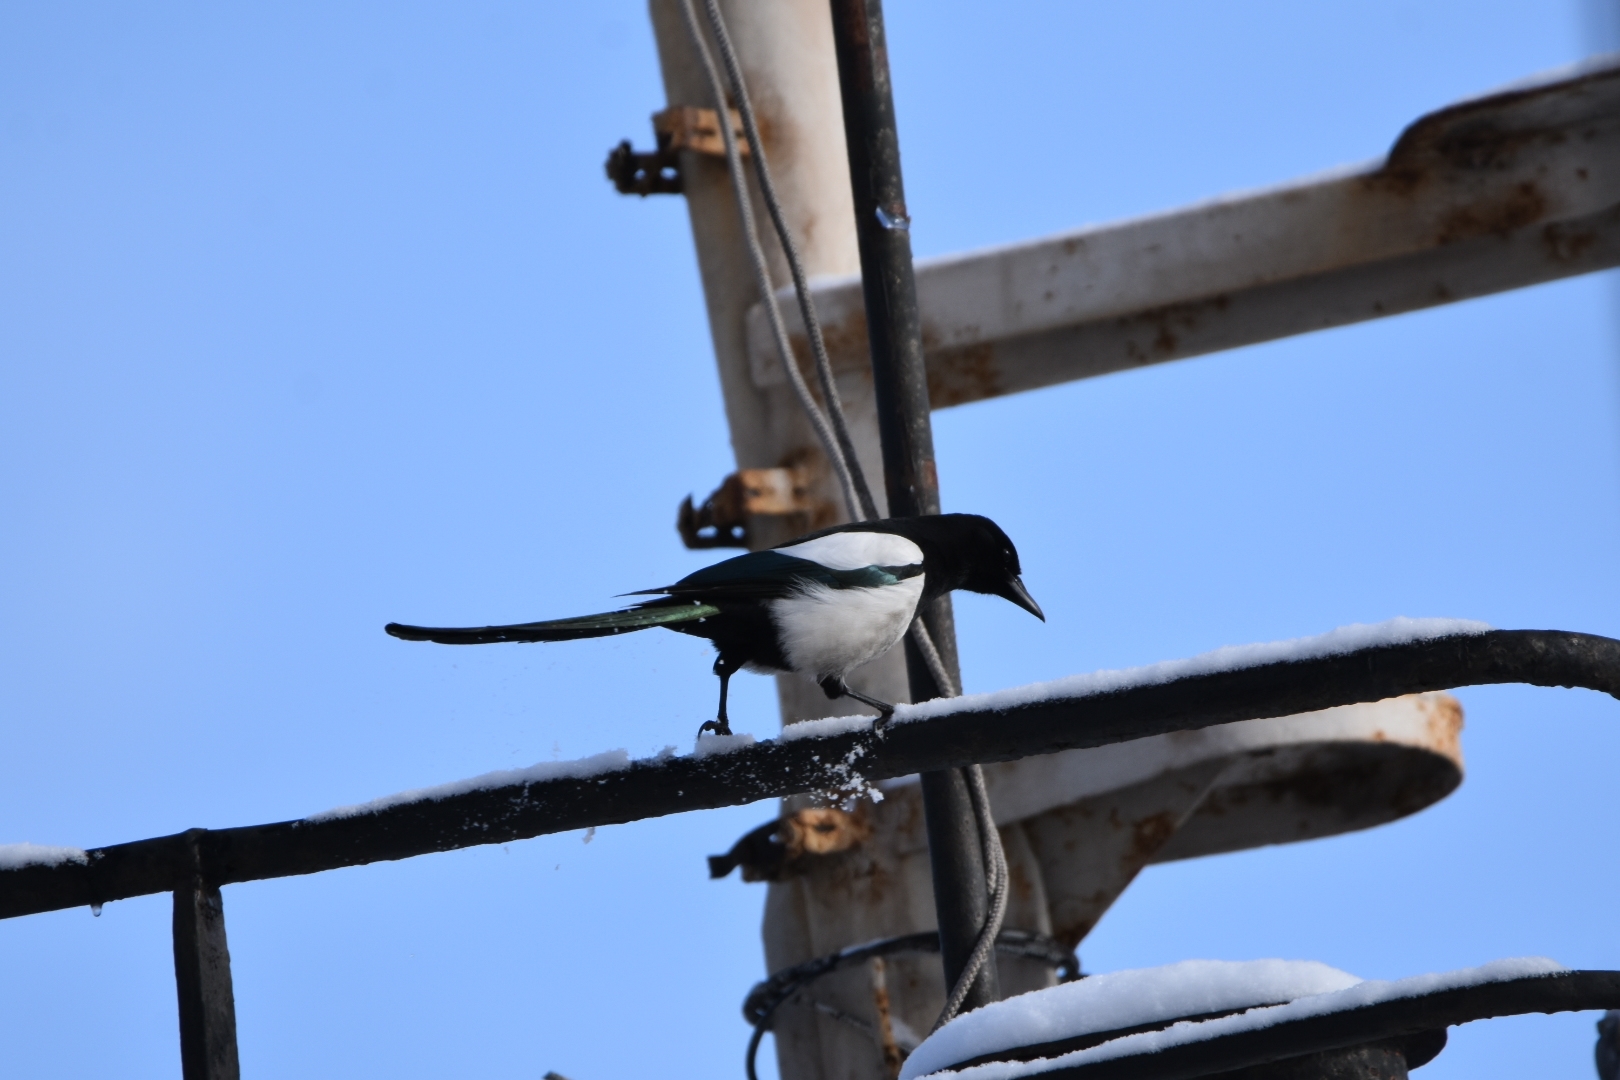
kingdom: Animalia
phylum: Chordata
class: Aves
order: Passeriformes
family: Corvidae
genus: Pica
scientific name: Pica pica
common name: Eurasian magpie
